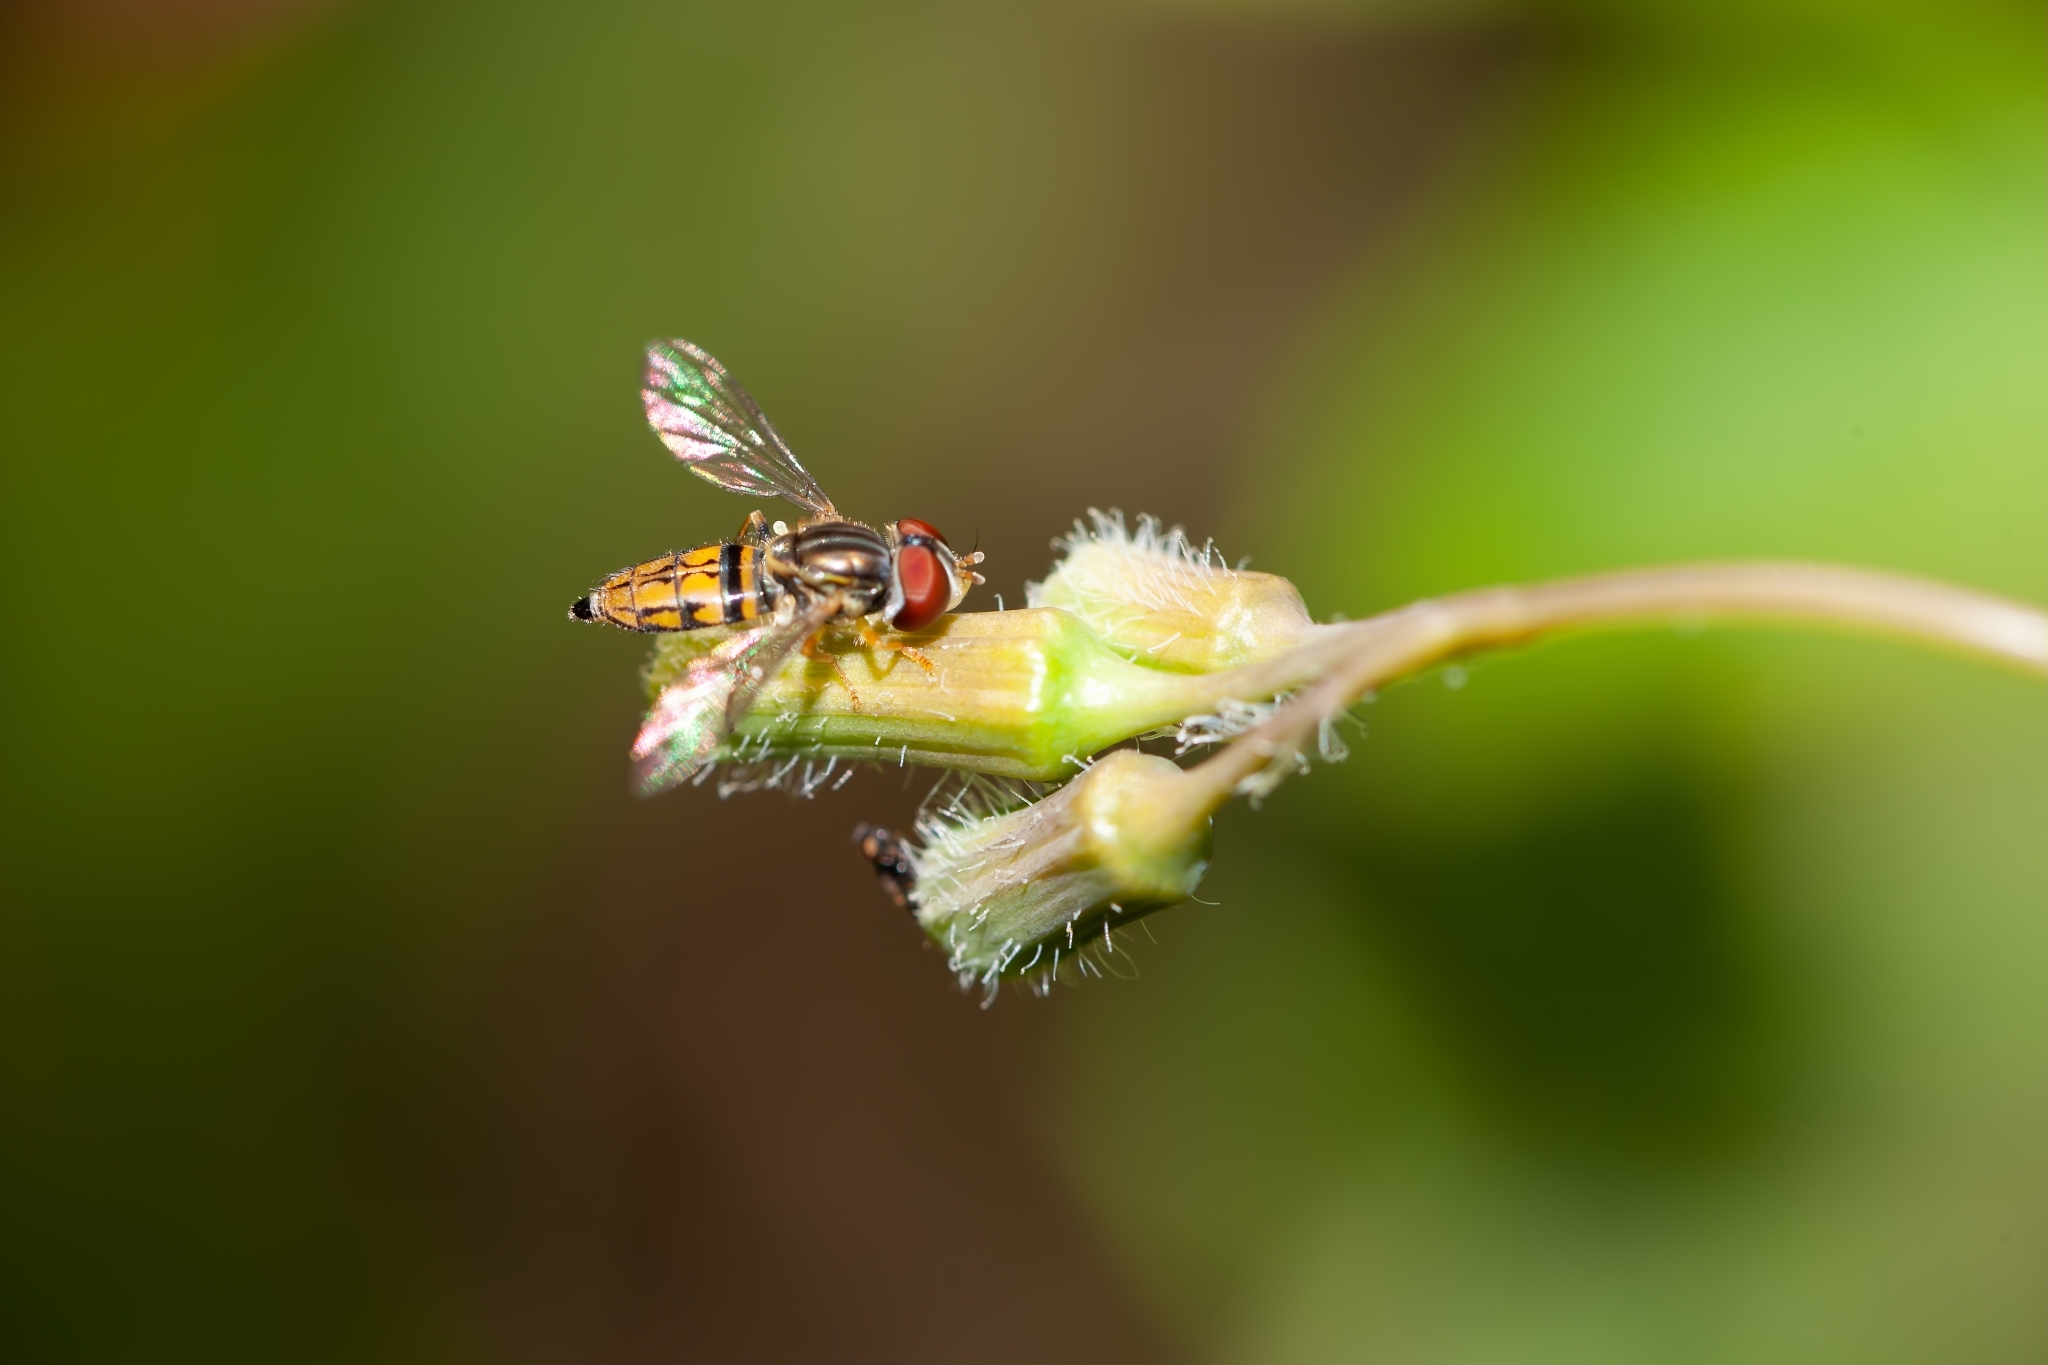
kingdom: Animalia
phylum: Arthropoda
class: Insecta
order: Diptera
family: Syrphidae
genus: Toxomerus
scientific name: Toxomerus boscii
